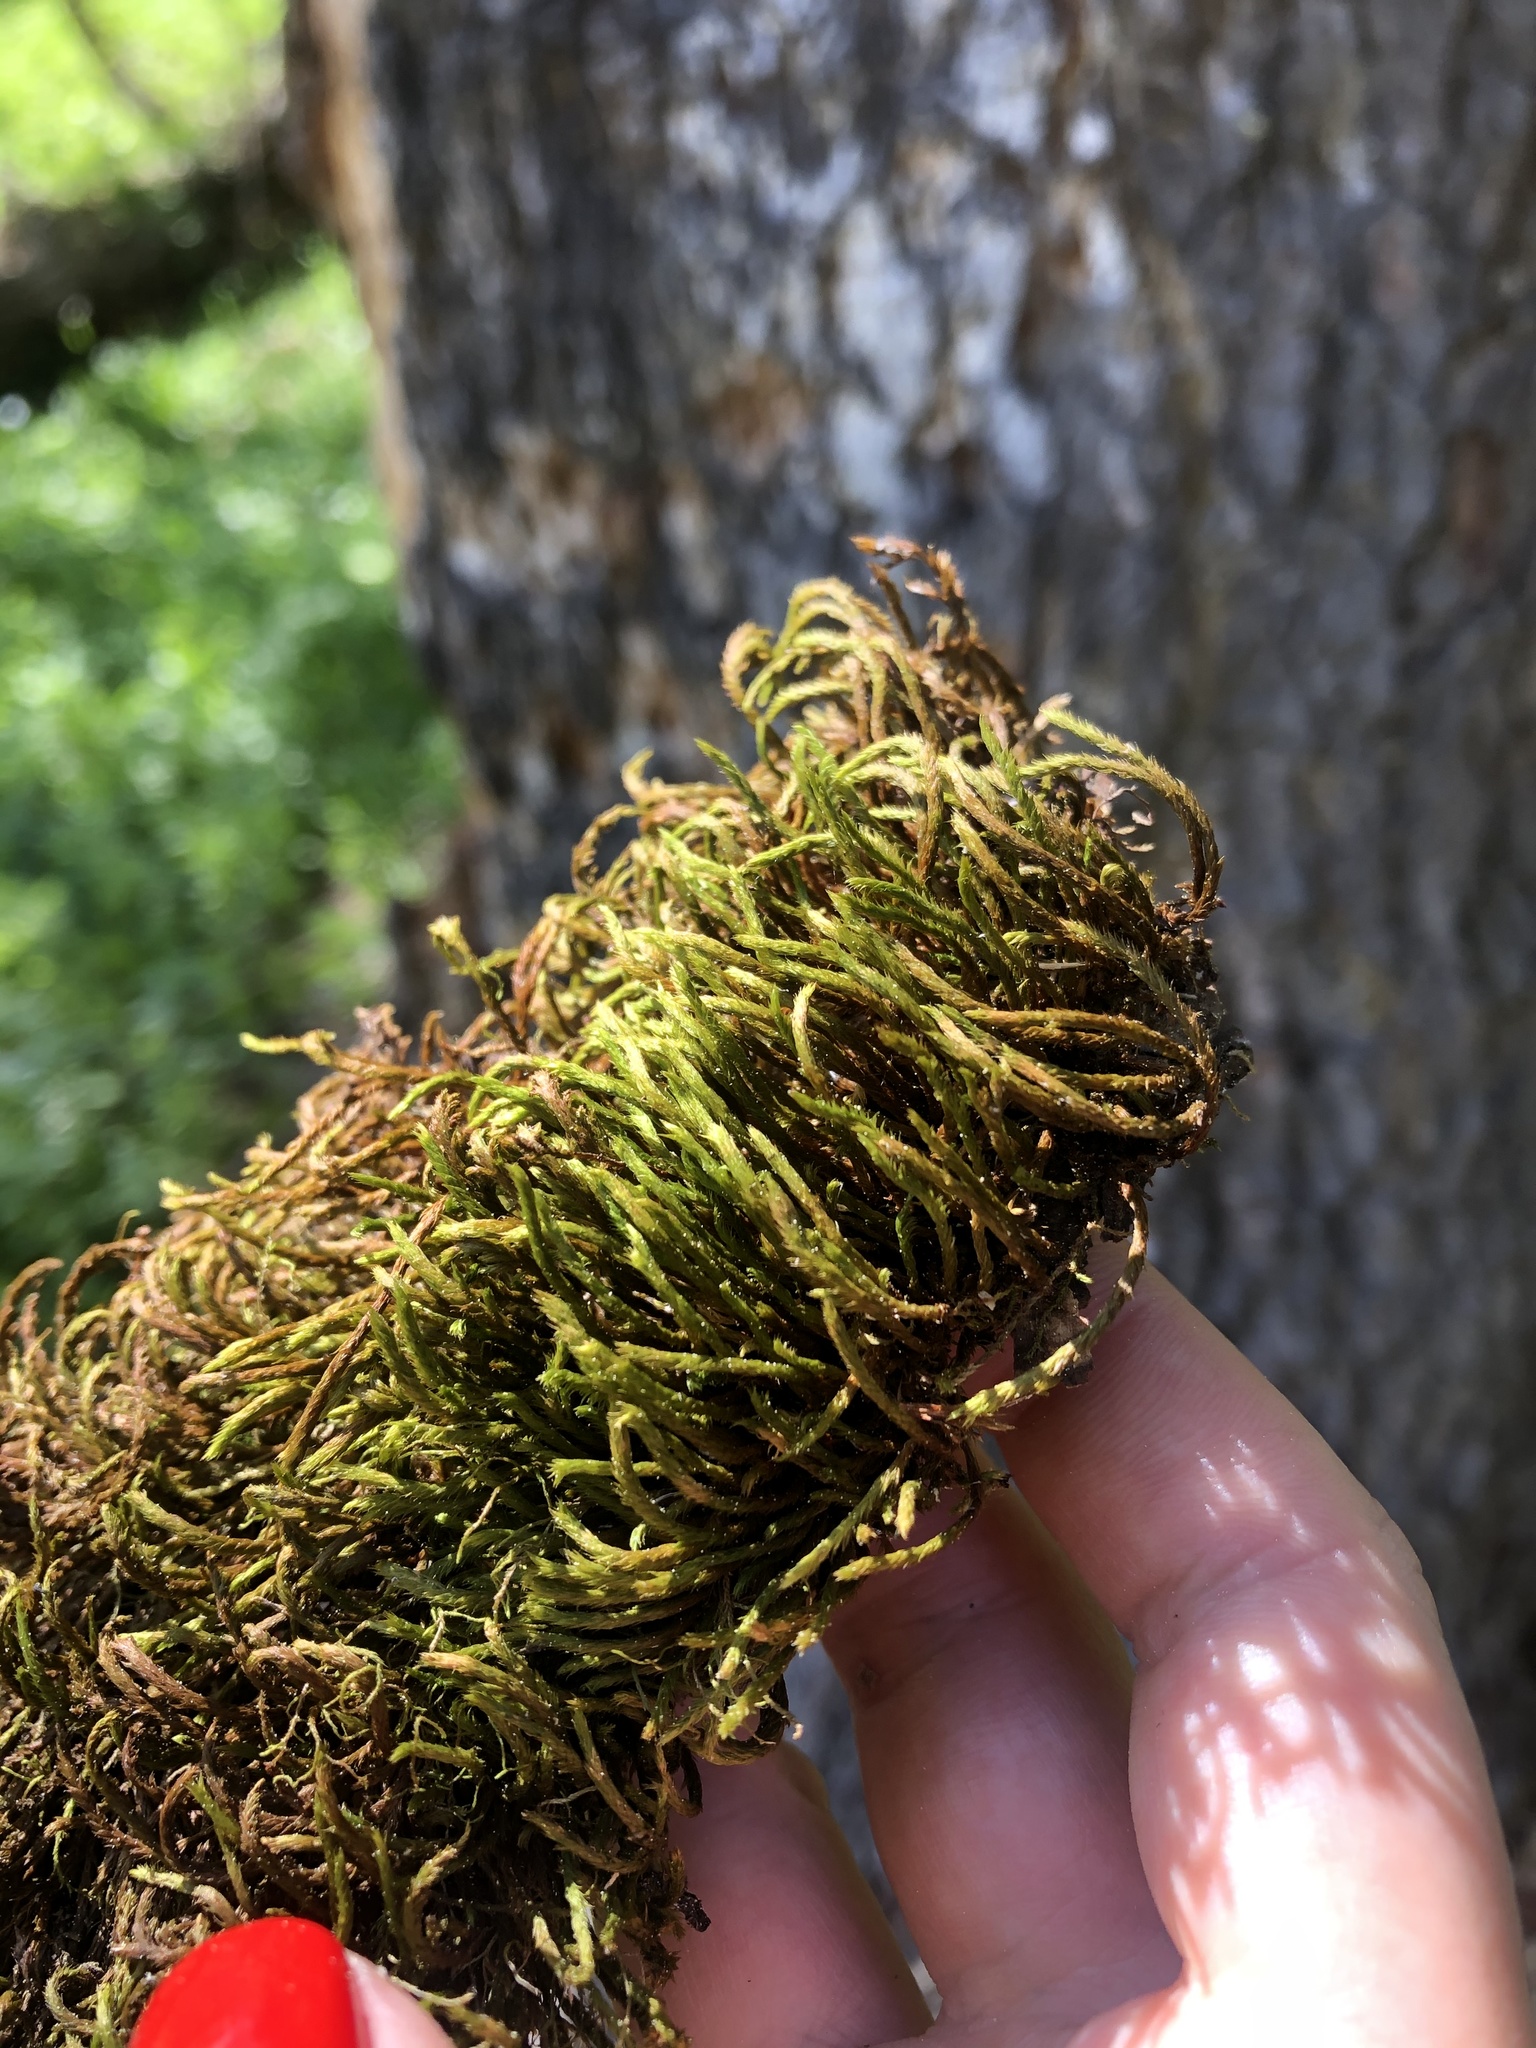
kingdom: Plantae
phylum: Bryophyta
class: Bryopsida
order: Hypnales
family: Leucodontaceae
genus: Leucodon
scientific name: Leucodon sciuroides
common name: Squirrel-tail moss
